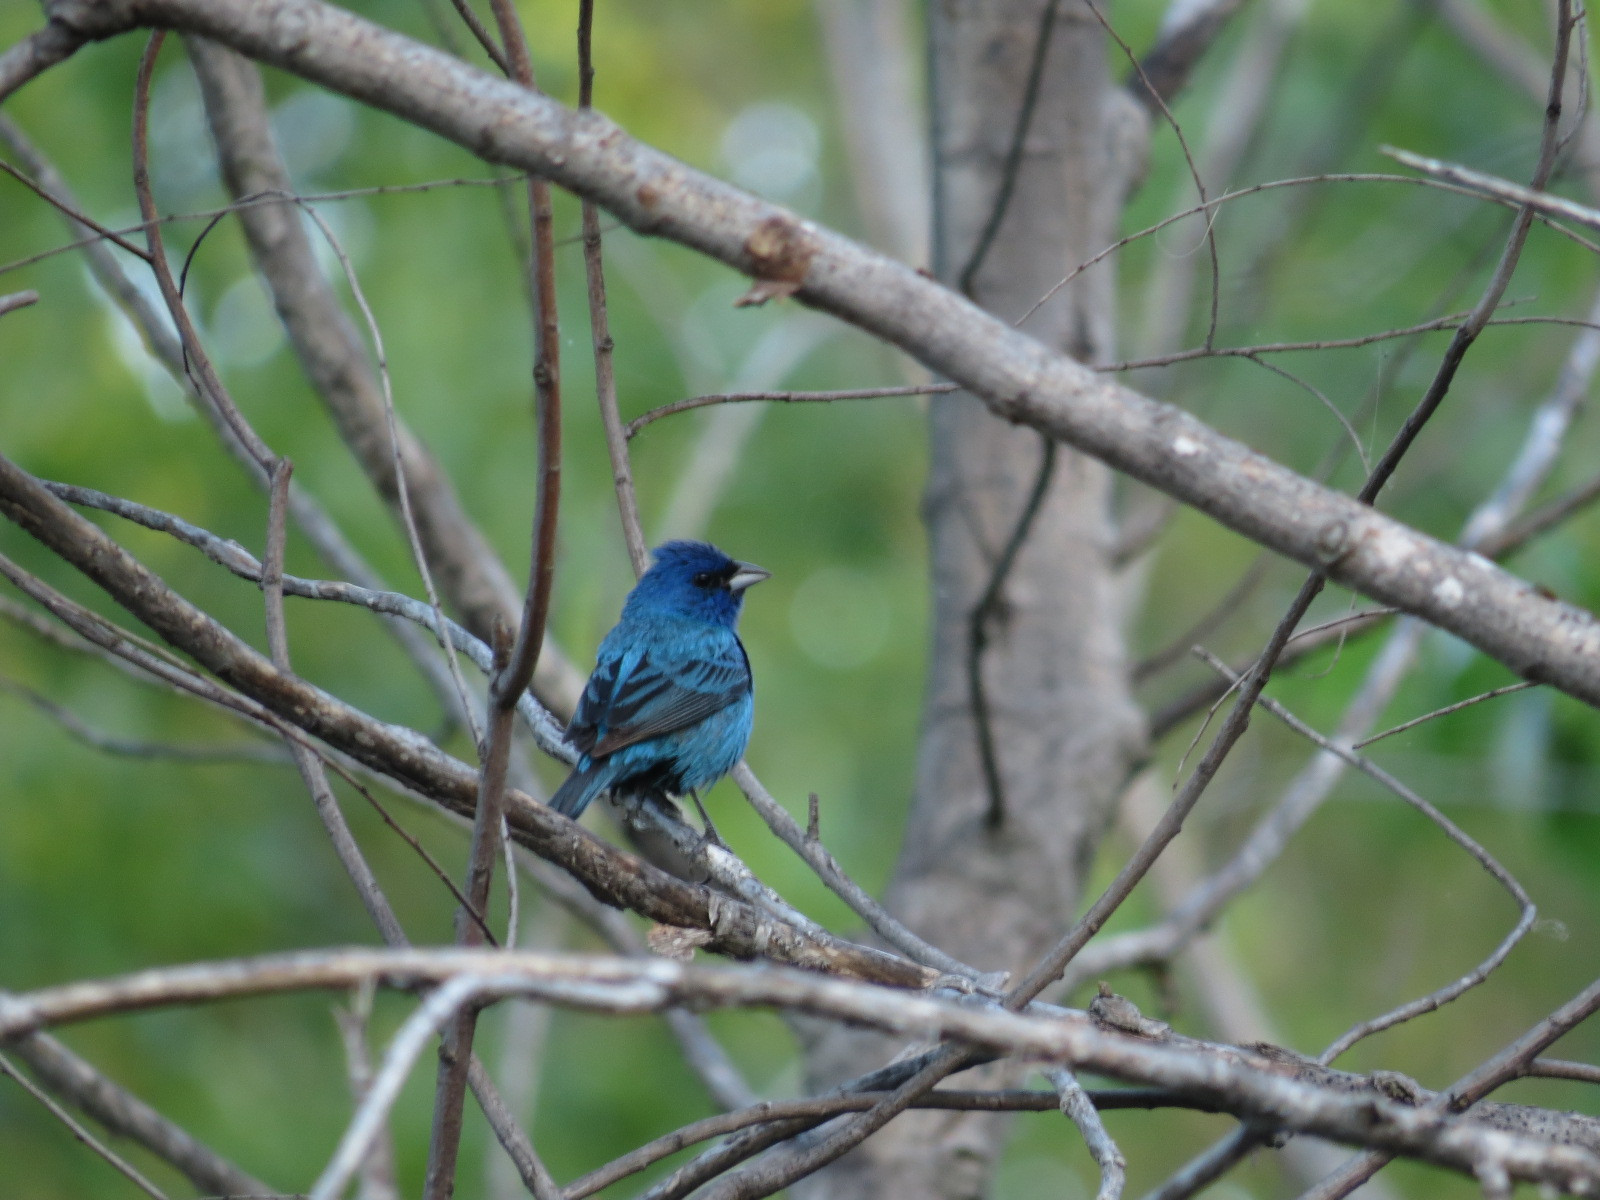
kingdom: Animalia
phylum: Chordata
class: Aves
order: Passeriformes
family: Cardinalidae
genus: Passerina
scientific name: Passerina cyanea
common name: Indigo bunting
